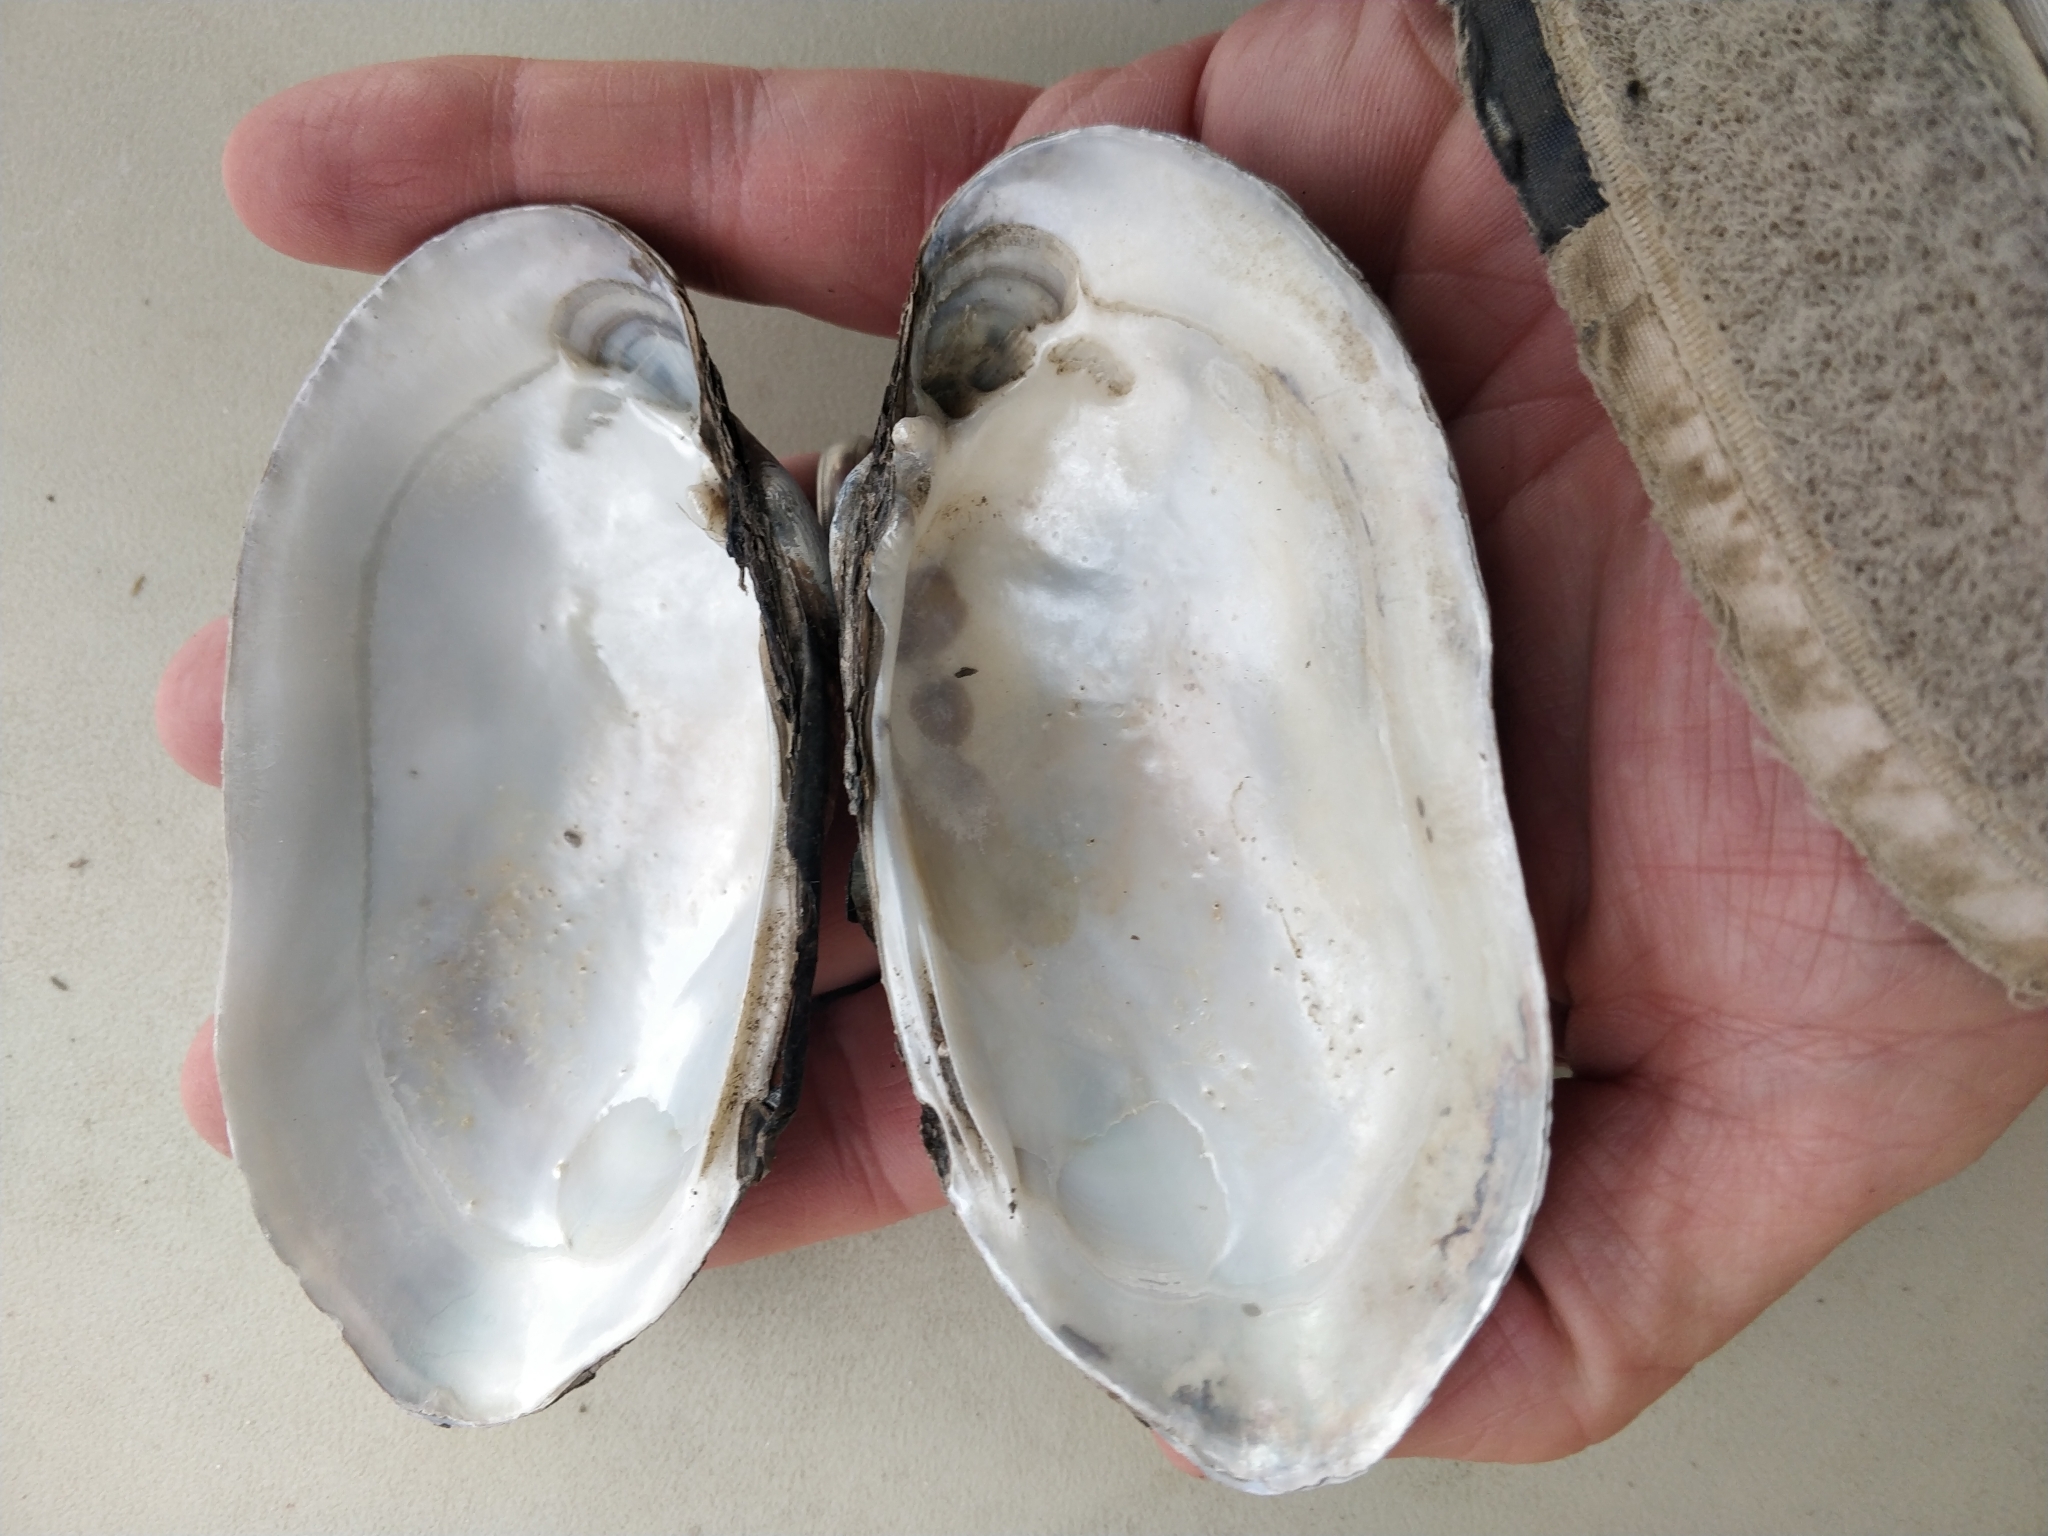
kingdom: Animalia
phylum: Mollusca
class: Bivalvia
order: Unionida
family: Unionidae
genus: Lampsilis
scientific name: Lampsilis siliquoidea
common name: Fatmucket
